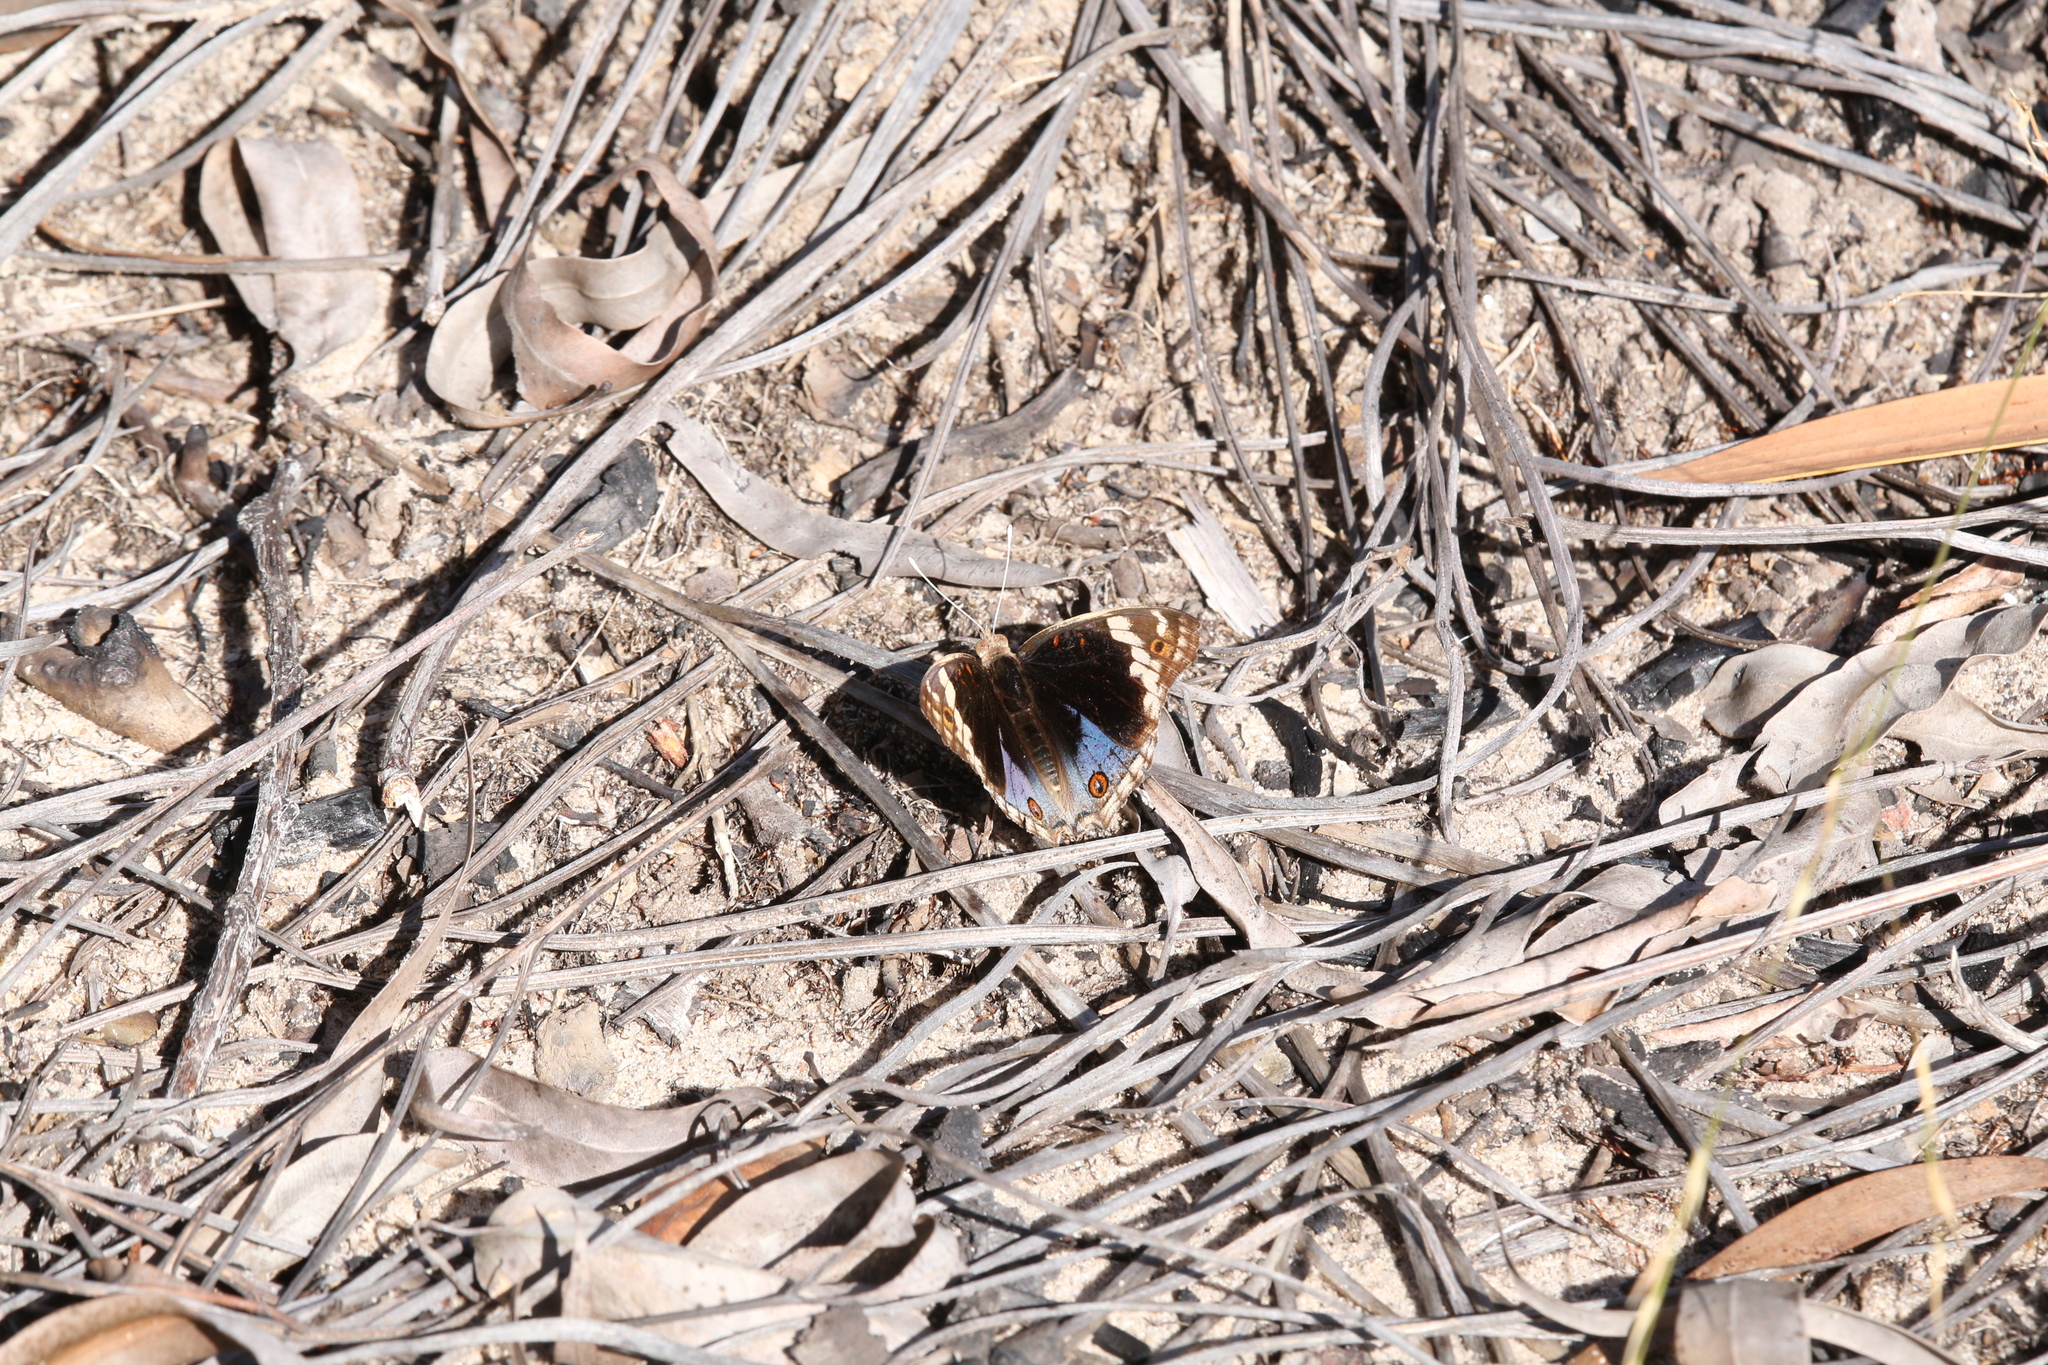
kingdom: Animalia
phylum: Arthropoda
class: Insecta
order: Lepidoptera
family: Nymphalidae
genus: Junonia
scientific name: Junonia orithya
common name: Blue pansy
